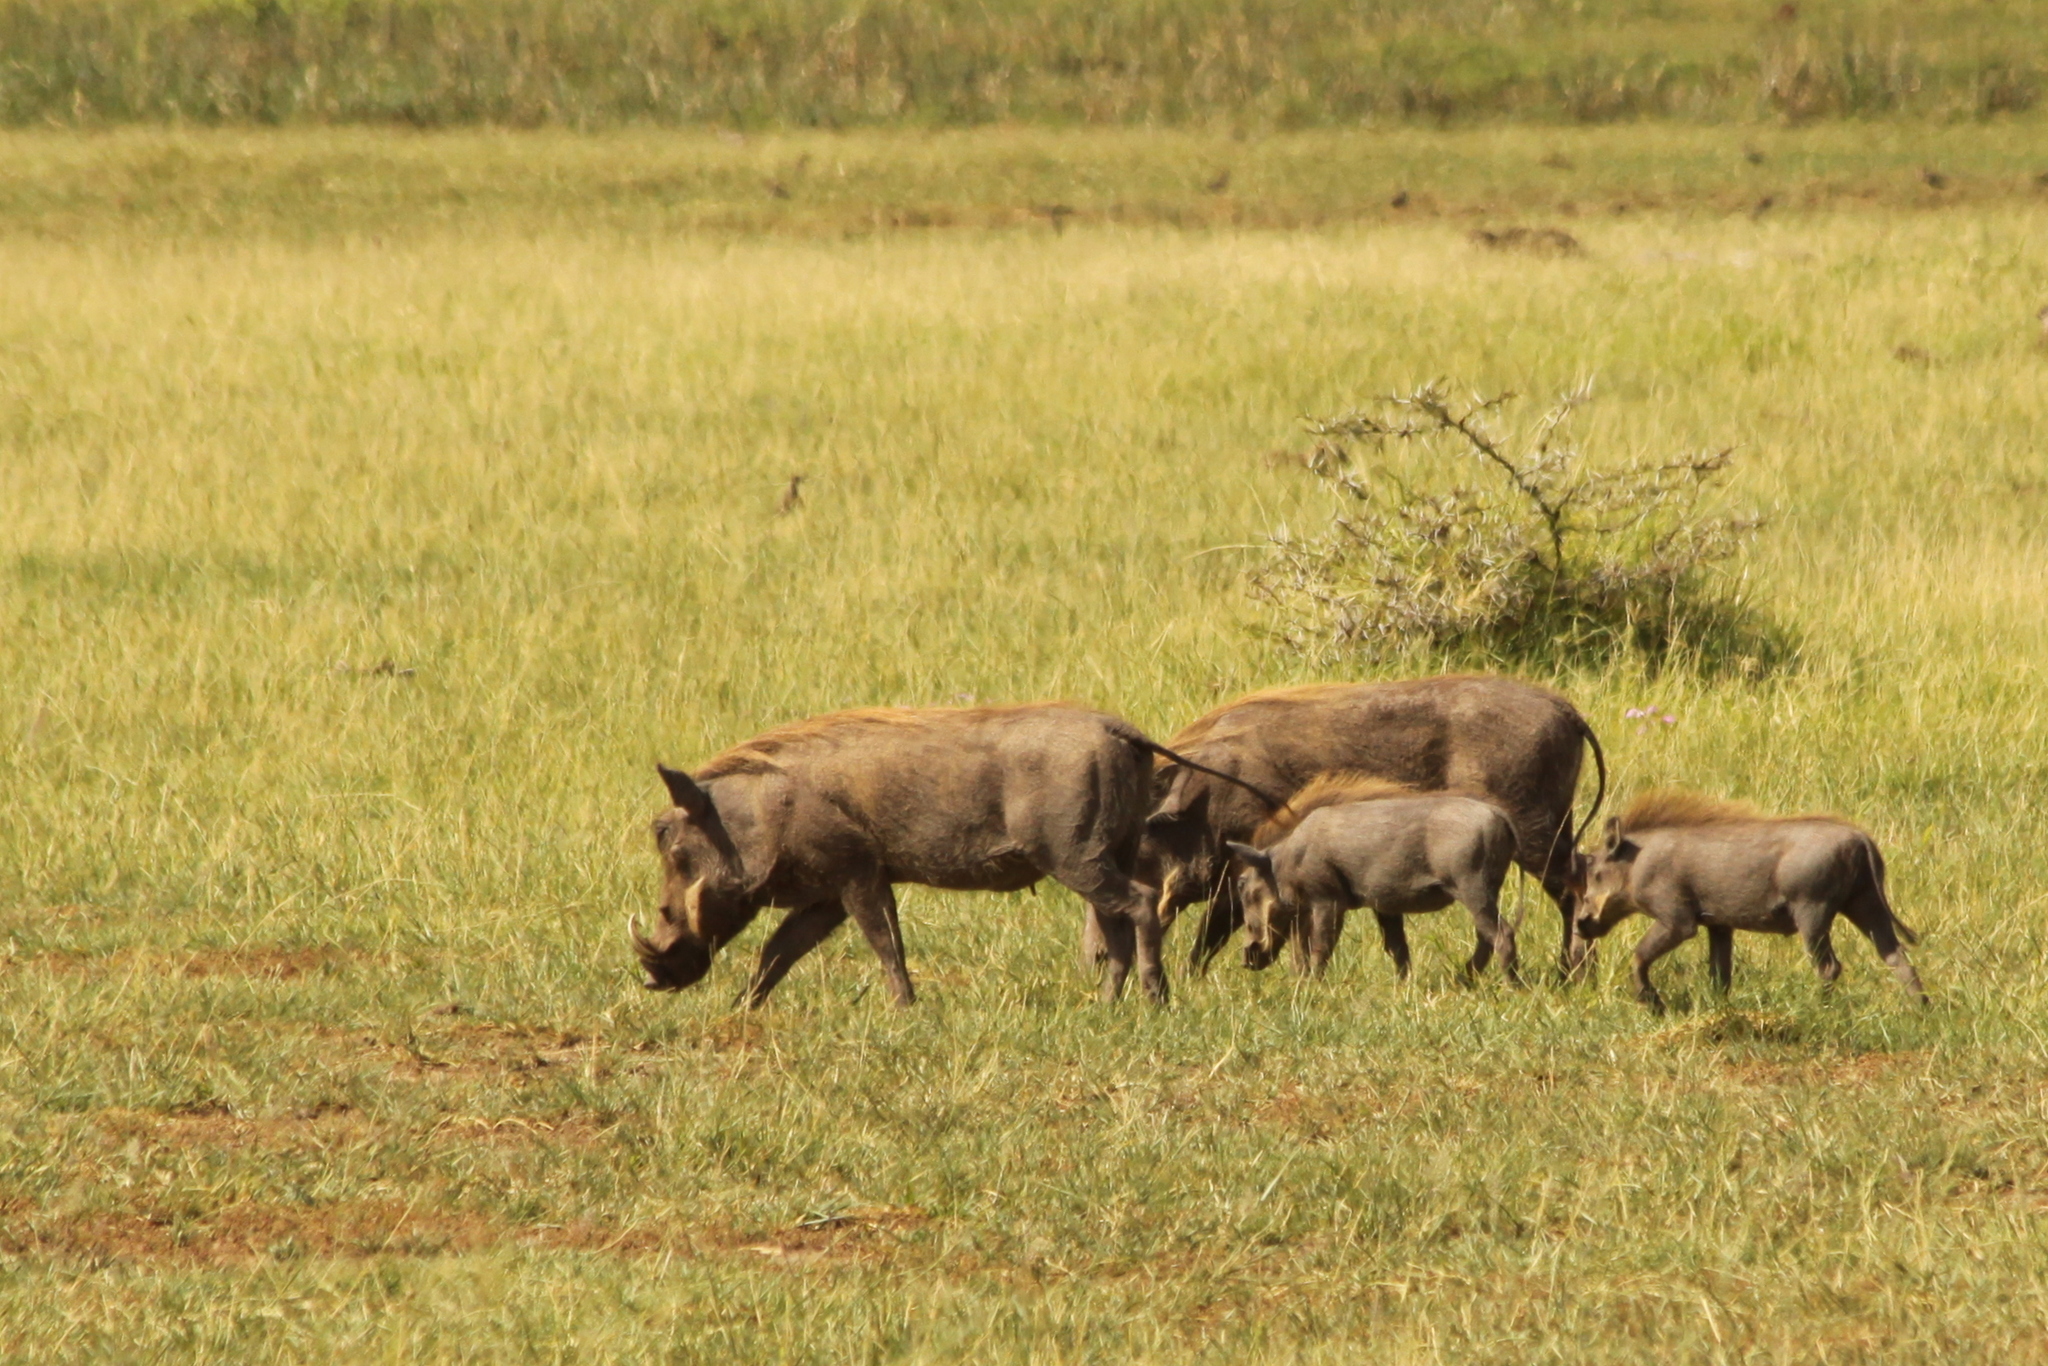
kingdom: Animalia
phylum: Chordata
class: Mammalia
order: Artiodactyla
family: Suidae
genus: Phacochoerus
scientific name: Phacochoerus africanus
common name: Common warthog
